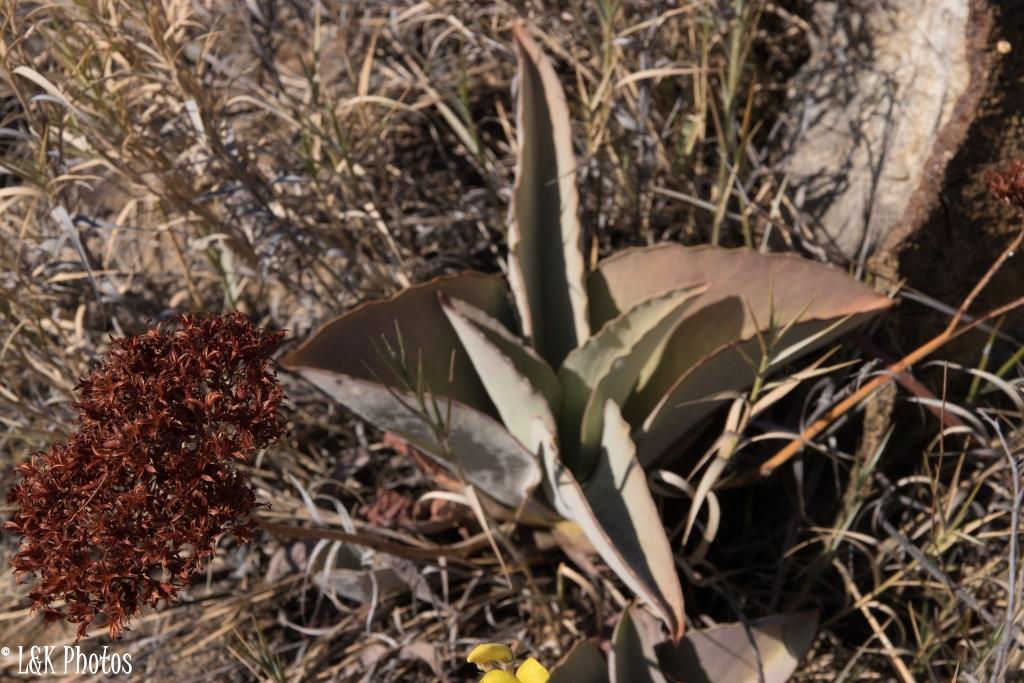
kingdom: Plantae
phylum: Tracheophyta
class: Magnoliopsida
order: Saxifragales
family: Crassulaceae
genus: Kalanchoe
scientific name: Kalanchoe synsepala
